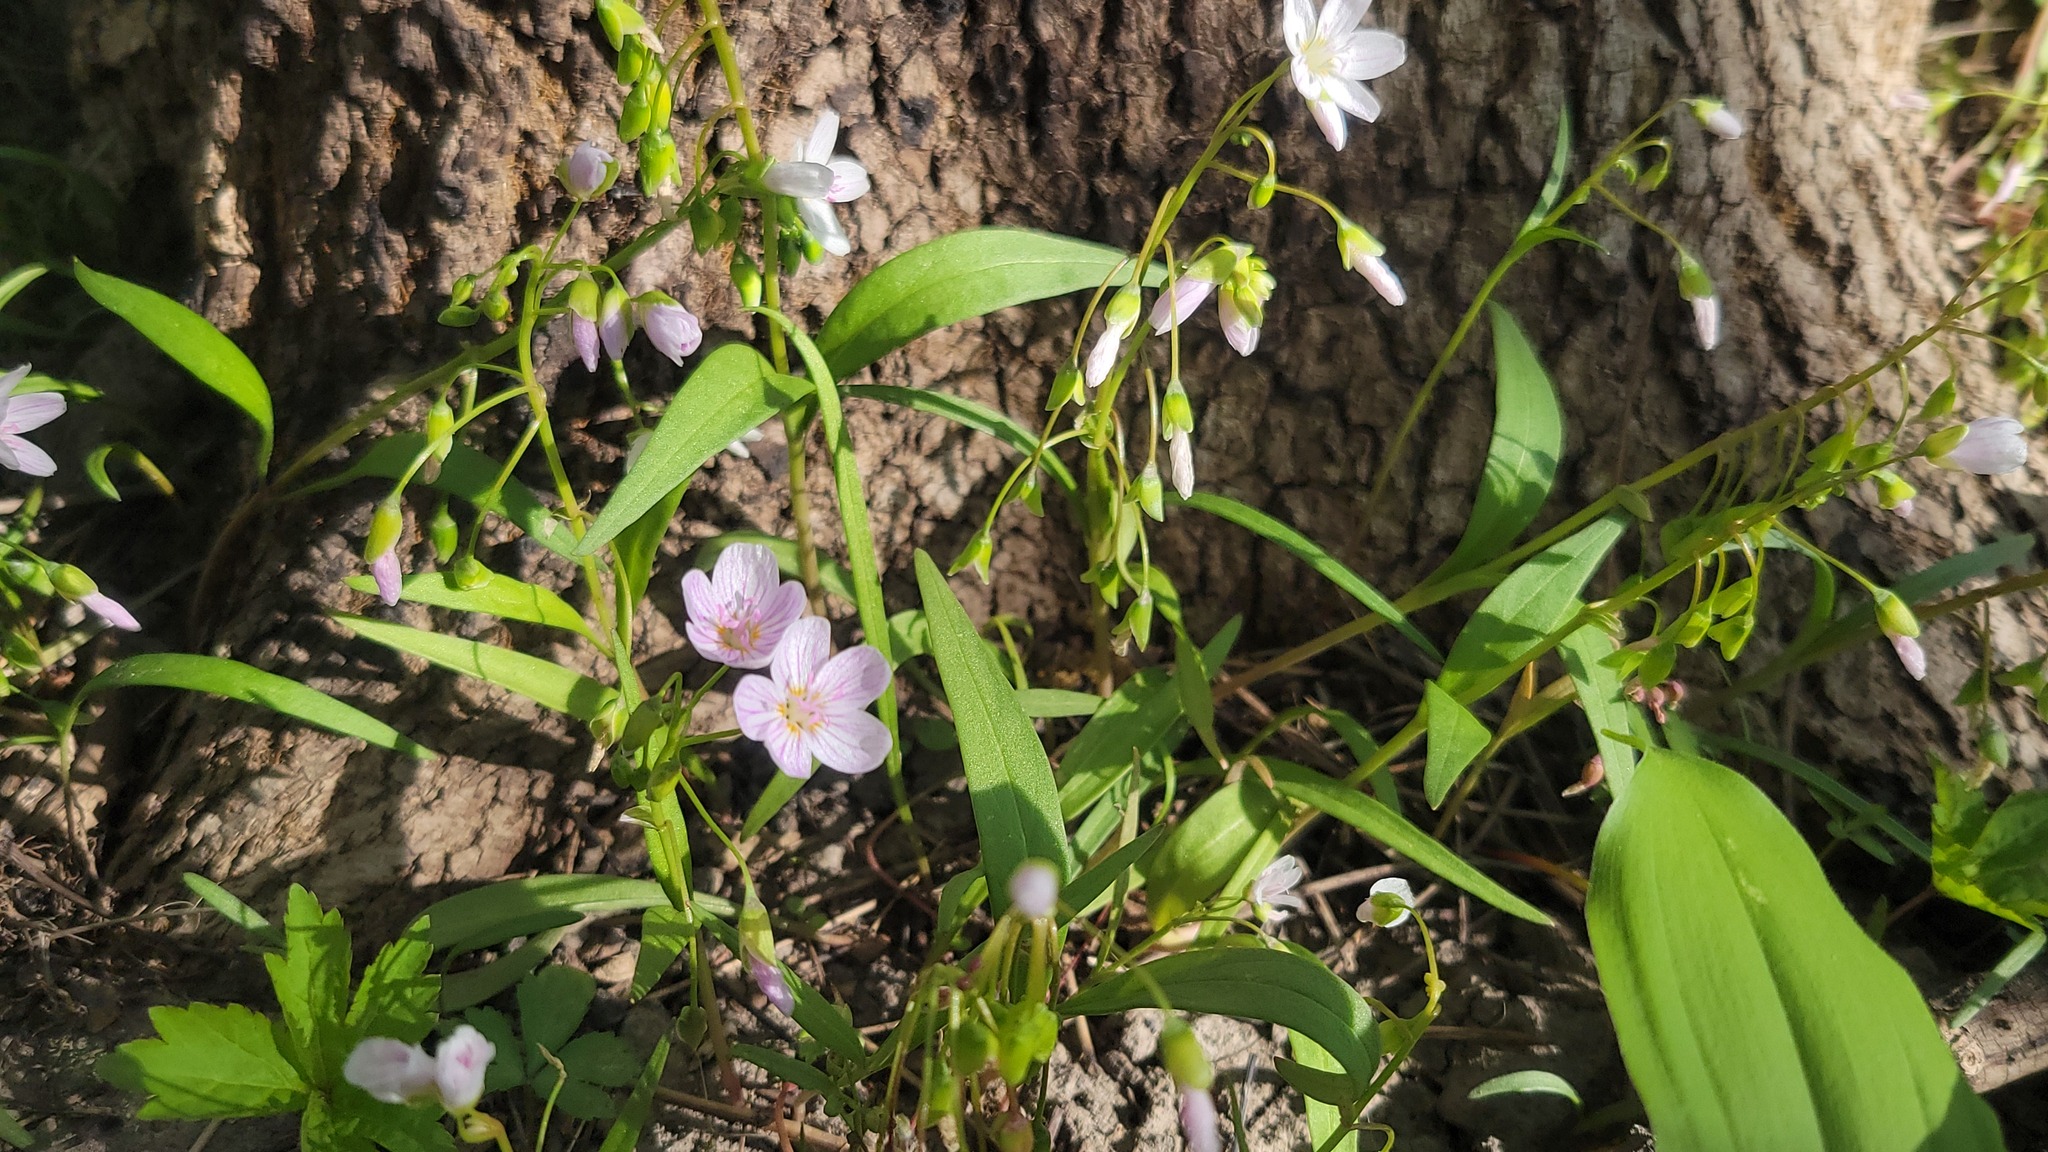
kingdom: Plantae
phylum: Tracheophyta
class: Magnoliopsida
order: Caryophyllales
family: Montiaceae
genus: Claytonia
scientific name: Claytonia virginica
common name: Virginia springbeauty
